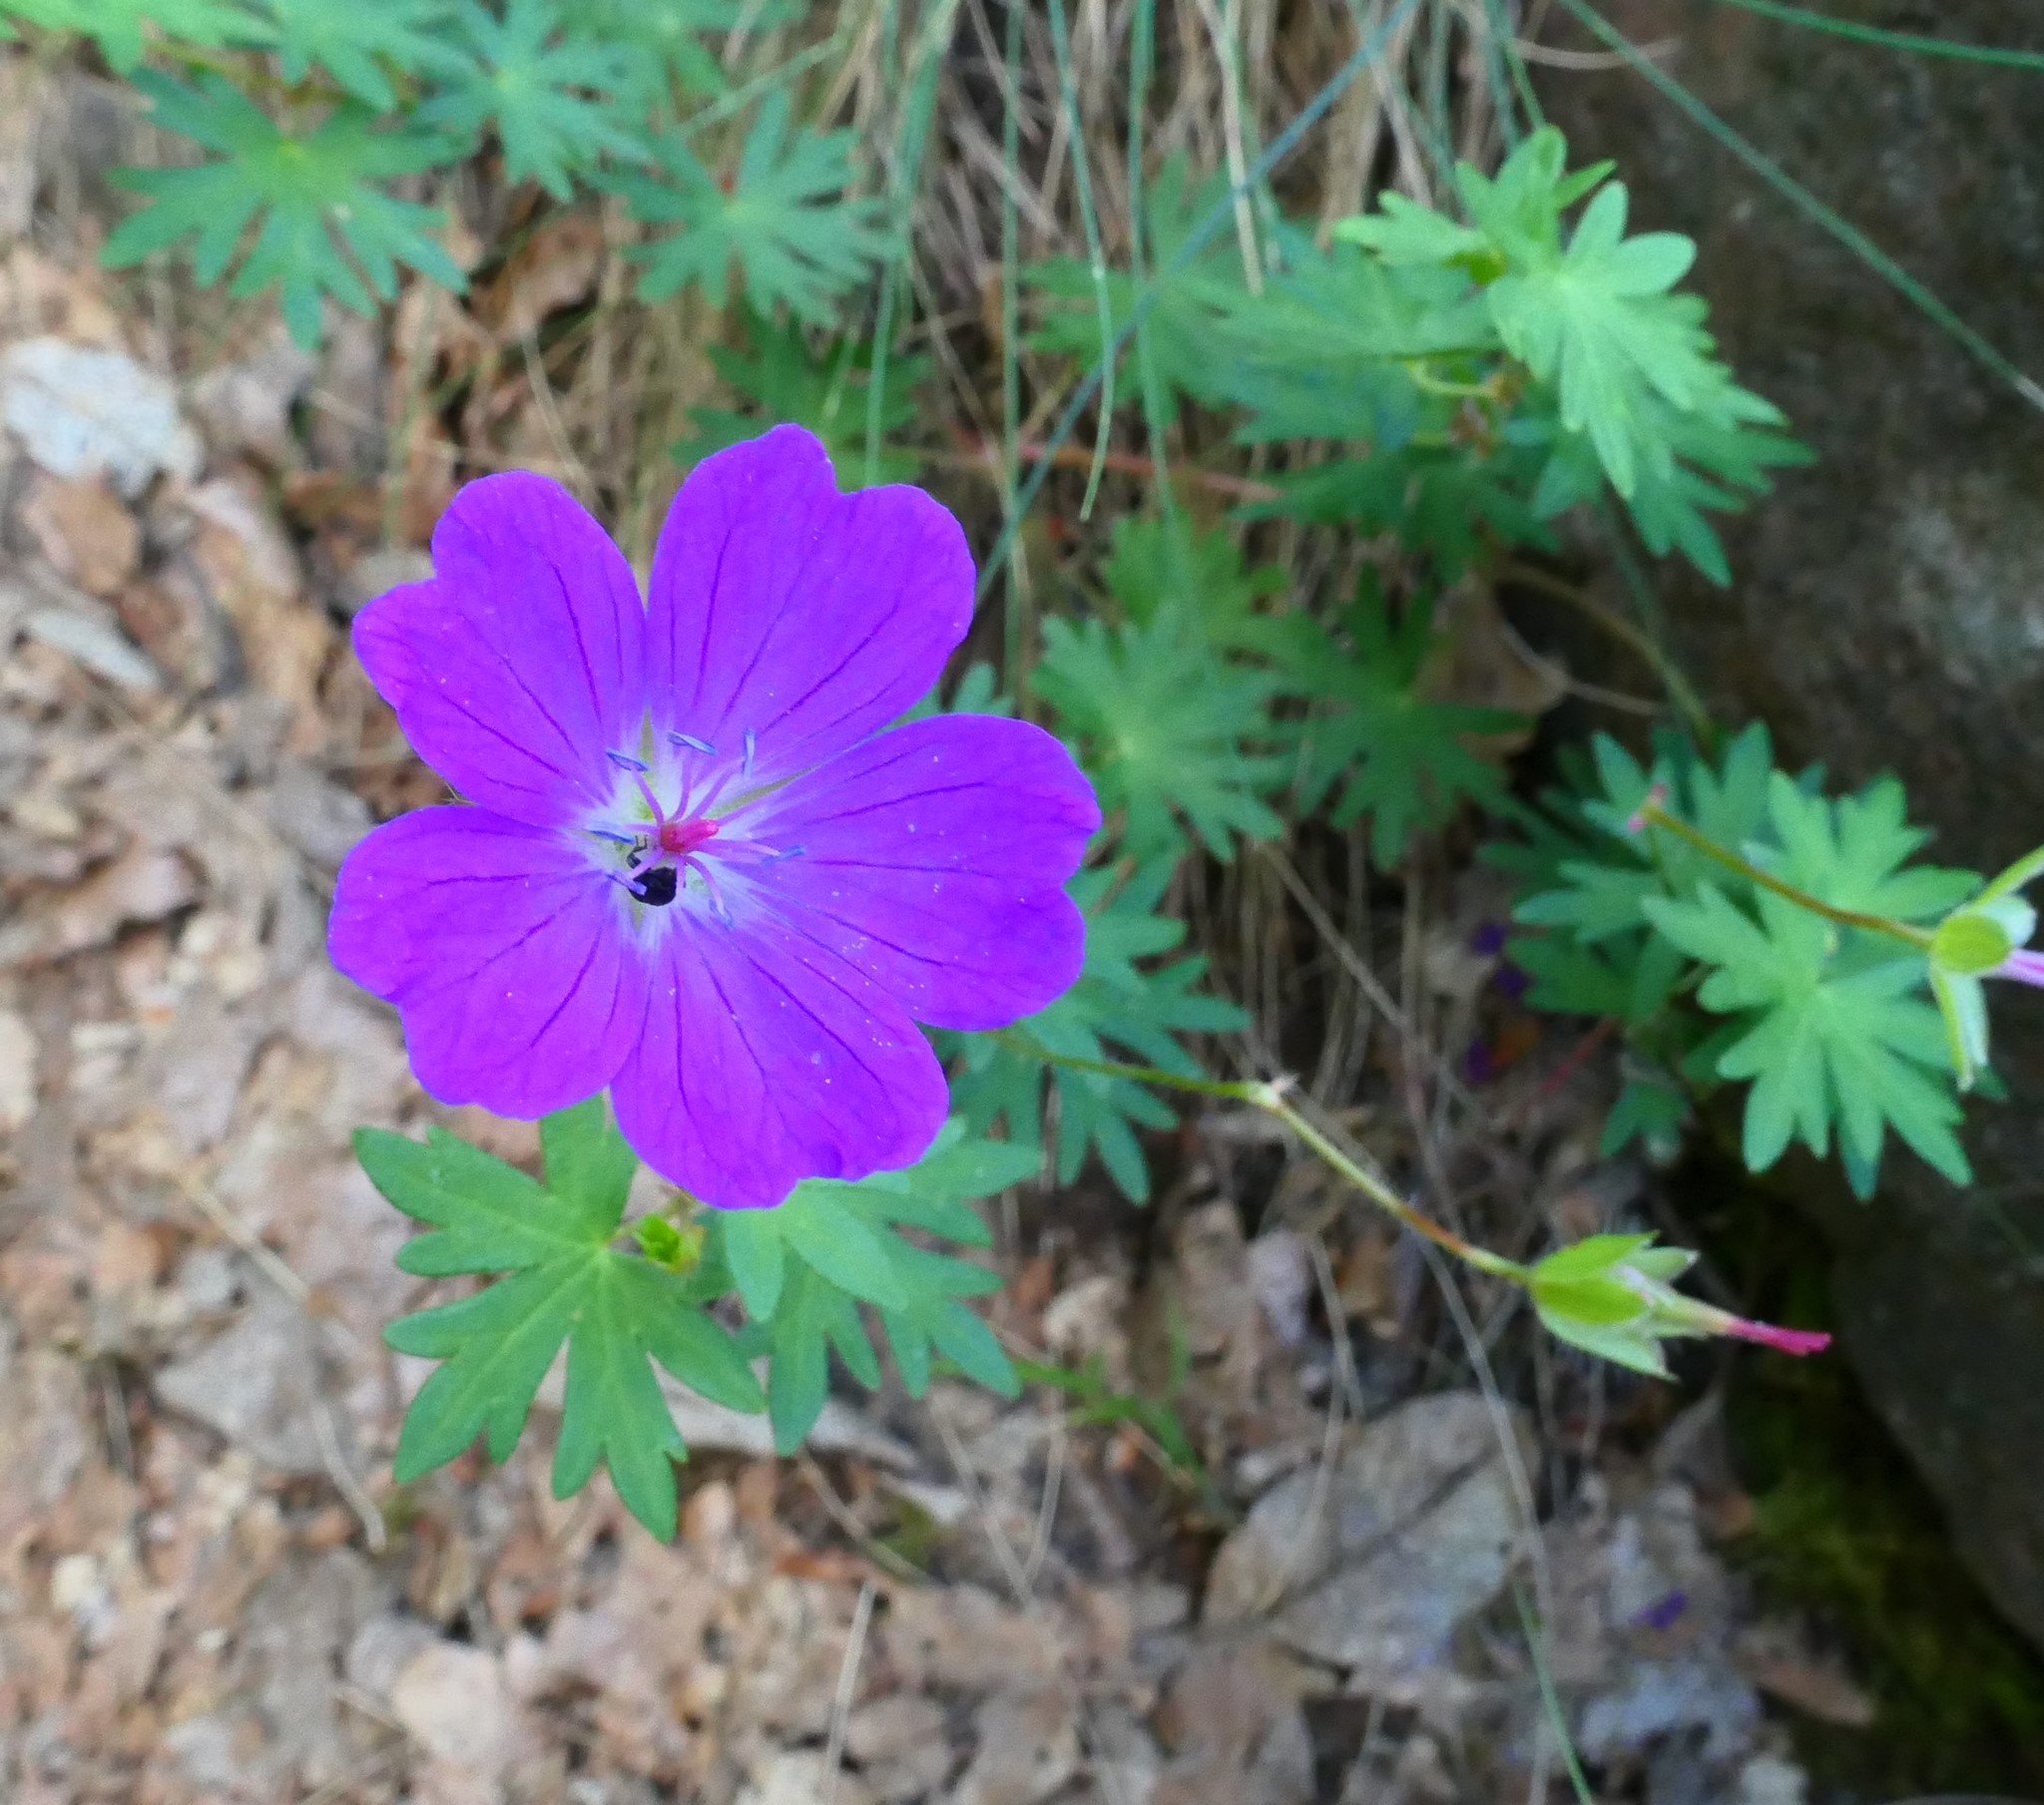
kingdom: Plantae
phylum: Tracheophyta
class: Magnoliopsida
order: Geraniales
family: Geraniaceae
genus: Geranium
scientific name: Geranium sanguineum
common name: Bloody crane's-bill
